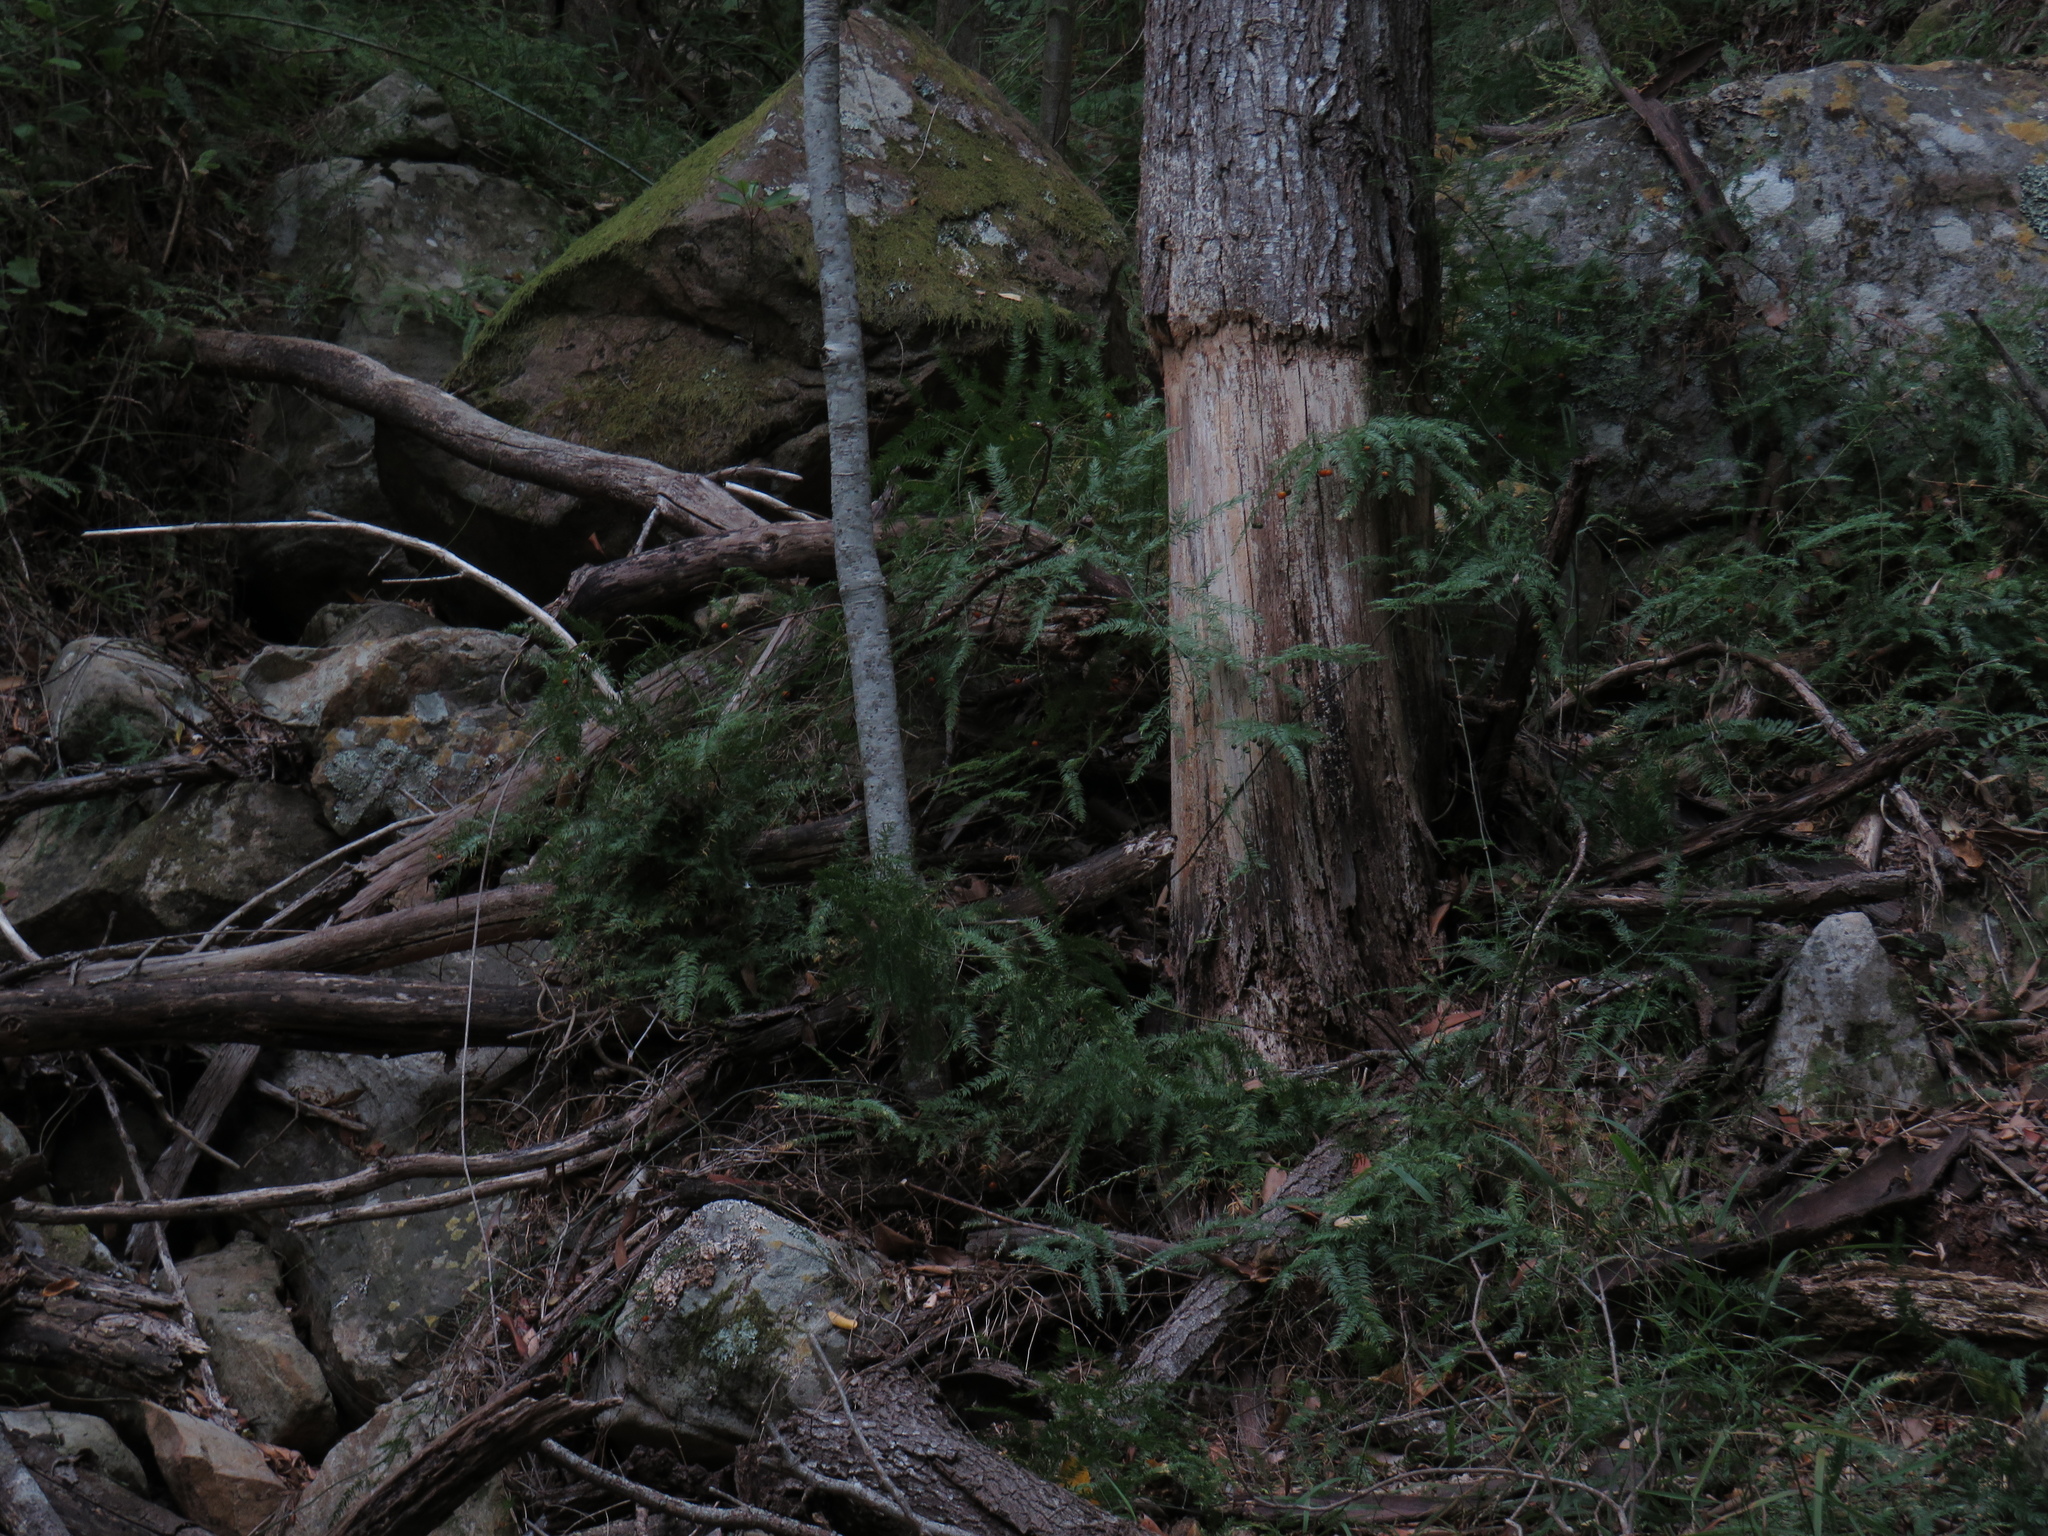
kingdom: Plantae
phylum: Tracheophyta
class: Liliopsida
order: Asparagales
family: Asparagaceae
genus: Asparagus
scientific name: Asparagus scandens
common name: Asparagus-fern
